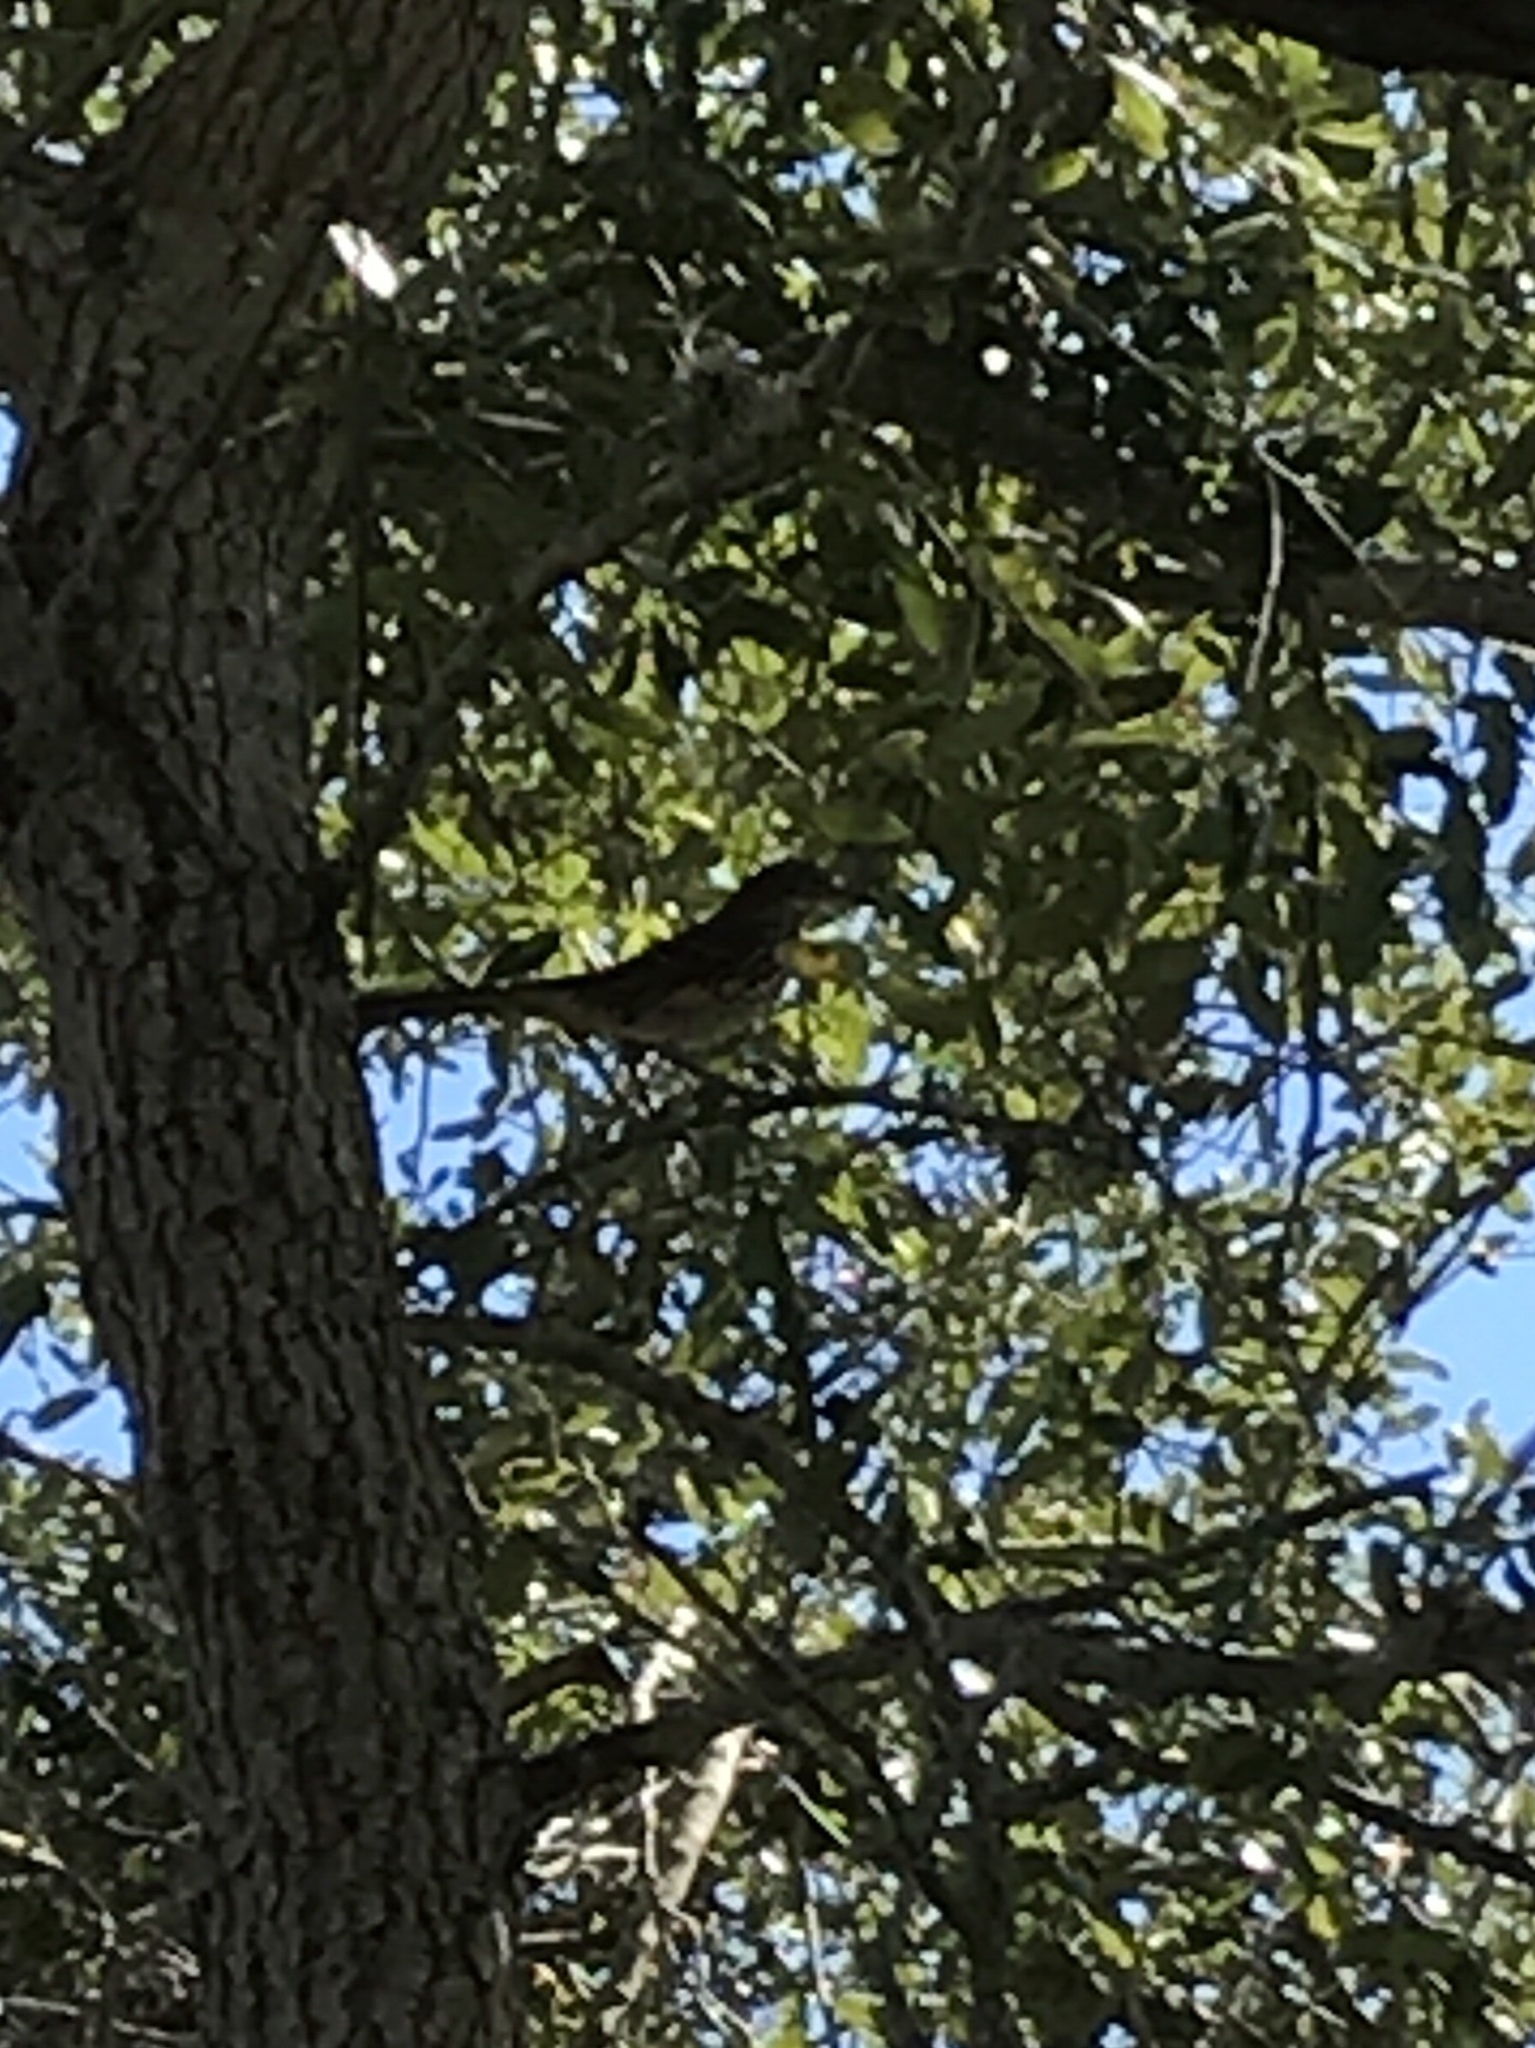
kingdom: Animalia
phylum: Chordata
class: Aves
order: Passeriformes
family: Mimidae
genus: Toxostoma
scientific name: Toxostoma rufum
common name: Brown thrasher
